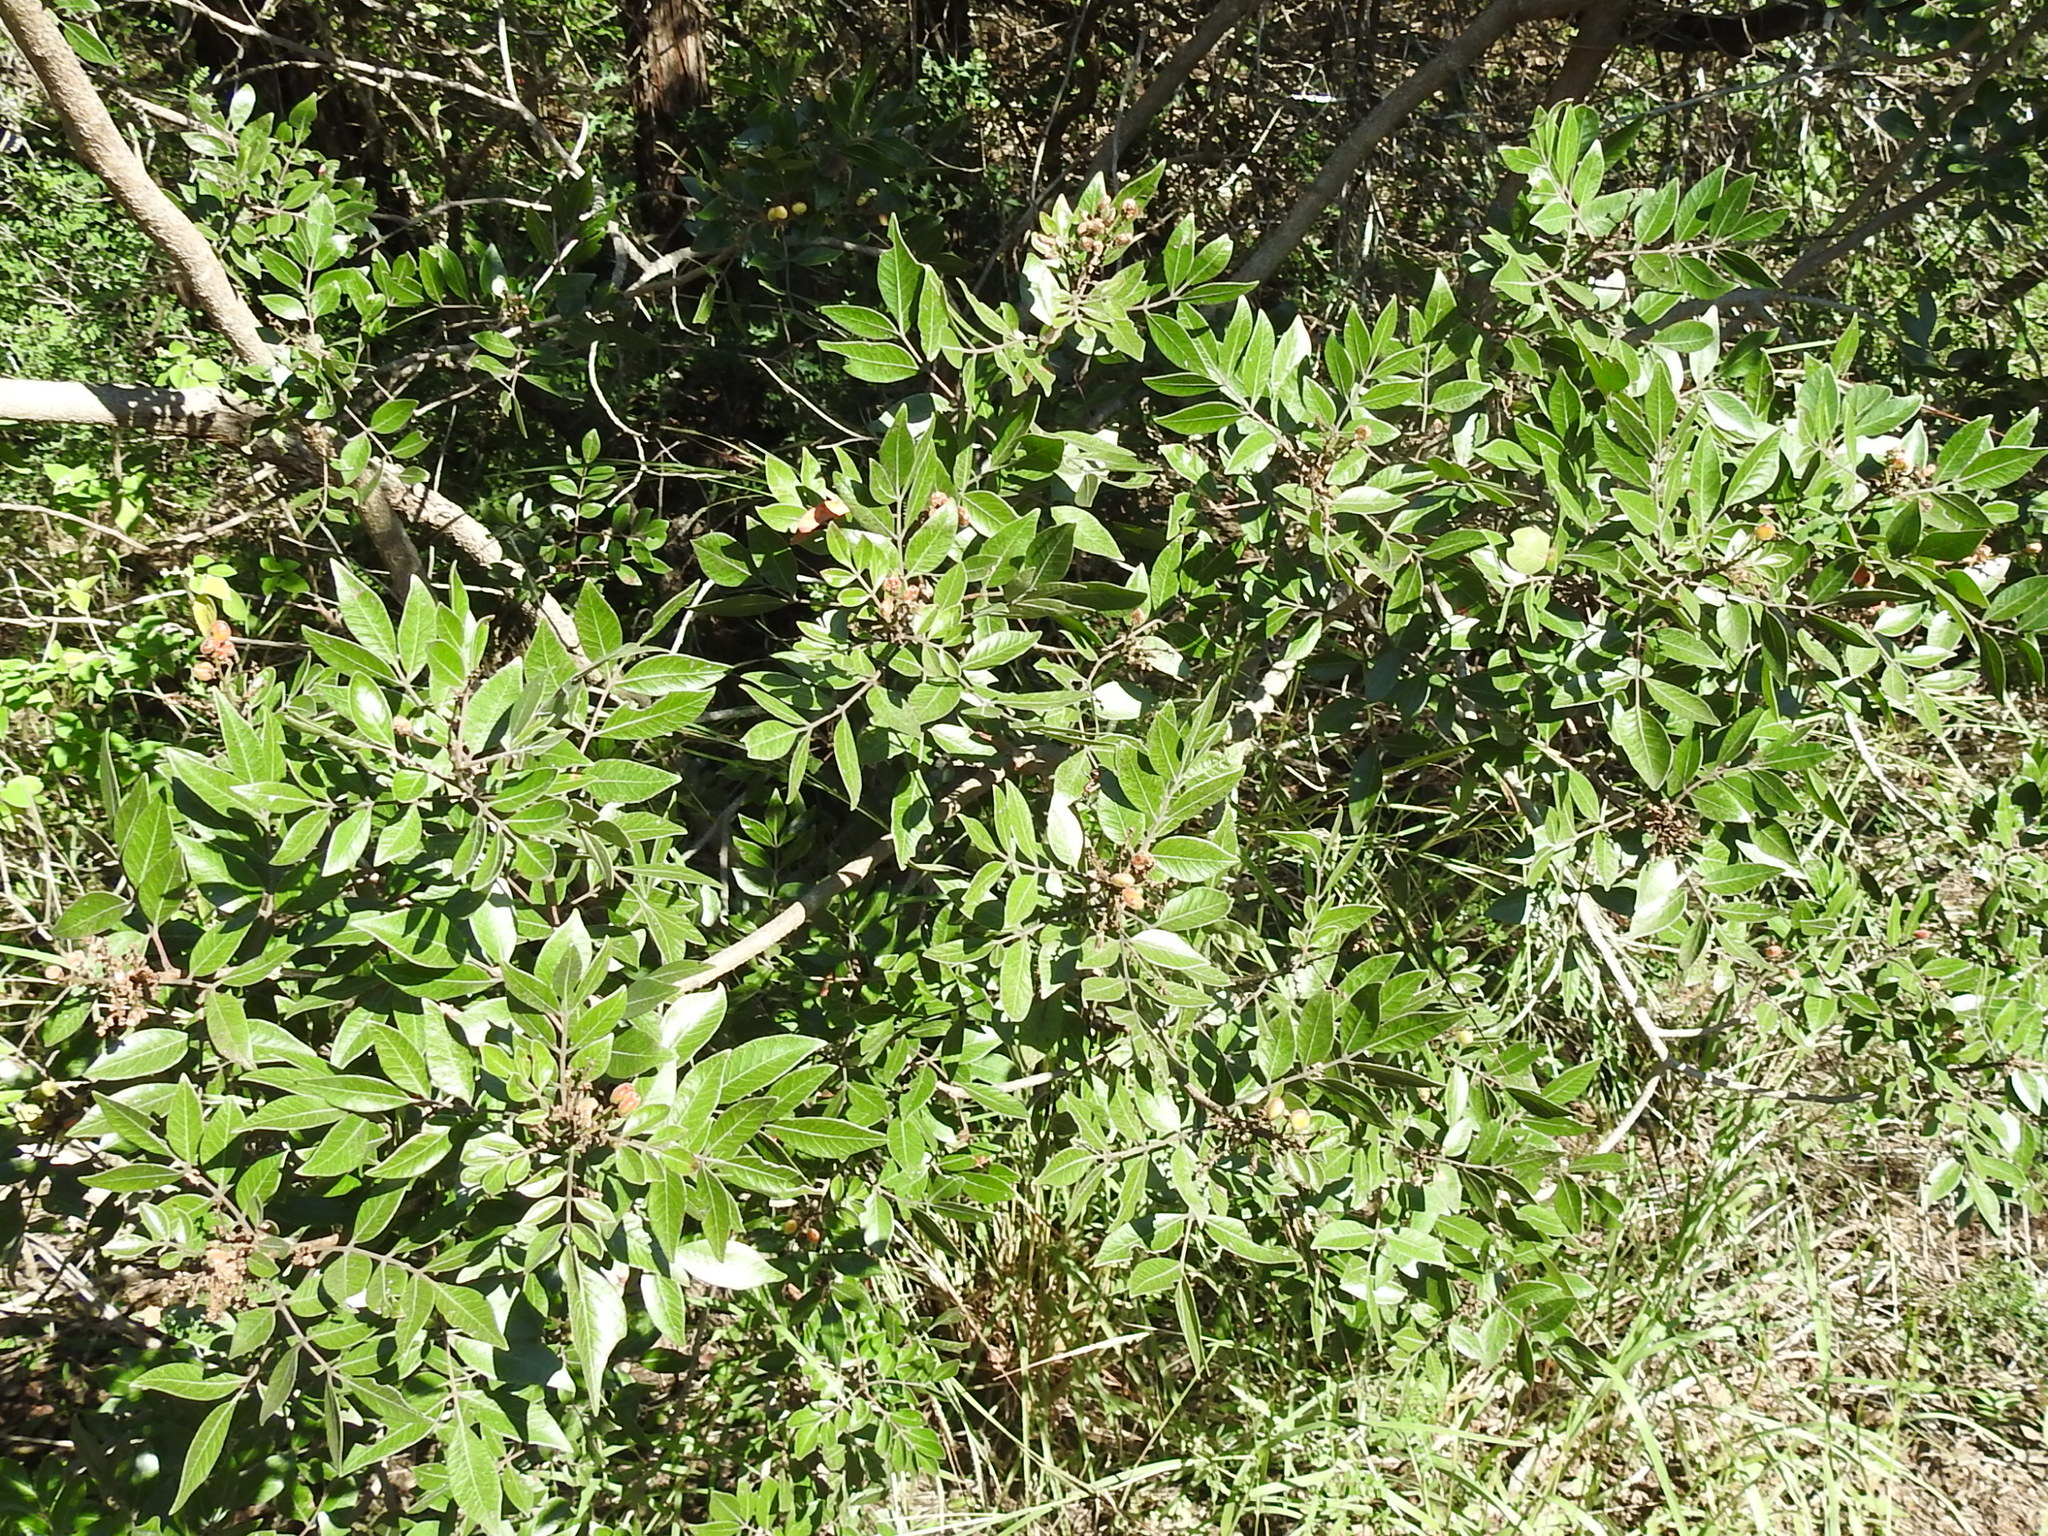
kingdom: Plantae
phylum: Tracheophyta
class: Magnoliopsida
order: Sapindales
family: Anacardiaceae
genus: Rhus
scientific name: Rhus virens
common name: Evergreen sumac
